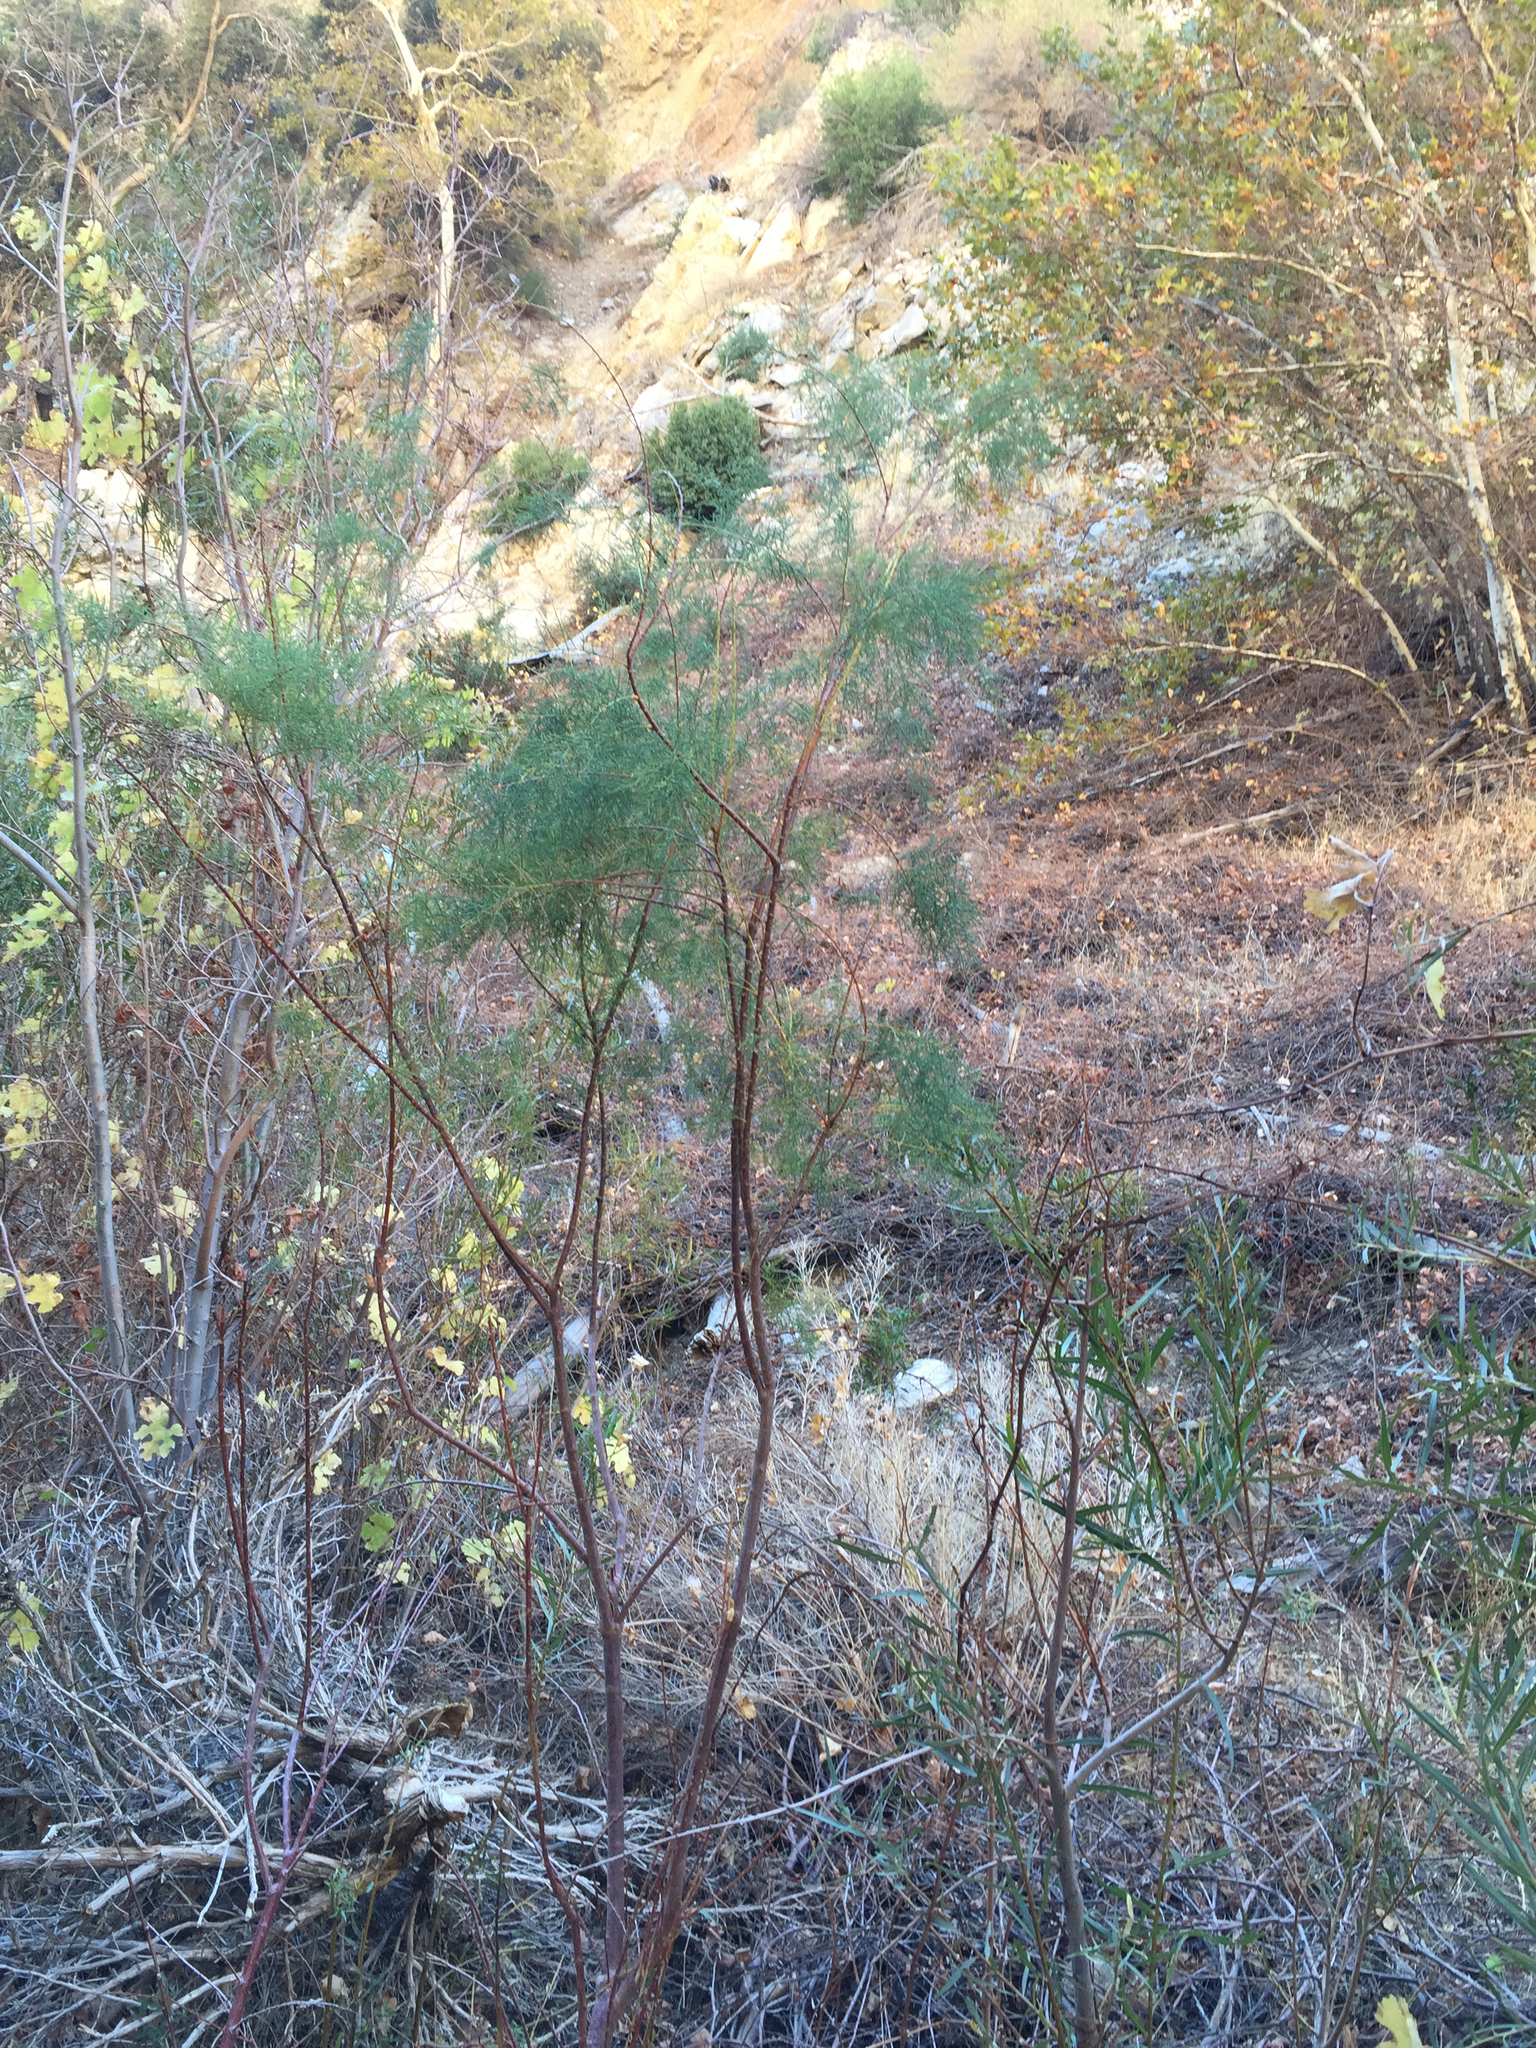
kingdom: Plantae
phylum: Tracheophyta
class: Magnoliopsida
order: Caryophyllales
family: Tamaricaceae
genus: Tamarix
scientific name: Tamarix ramosissima
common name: Pink tamarisk
